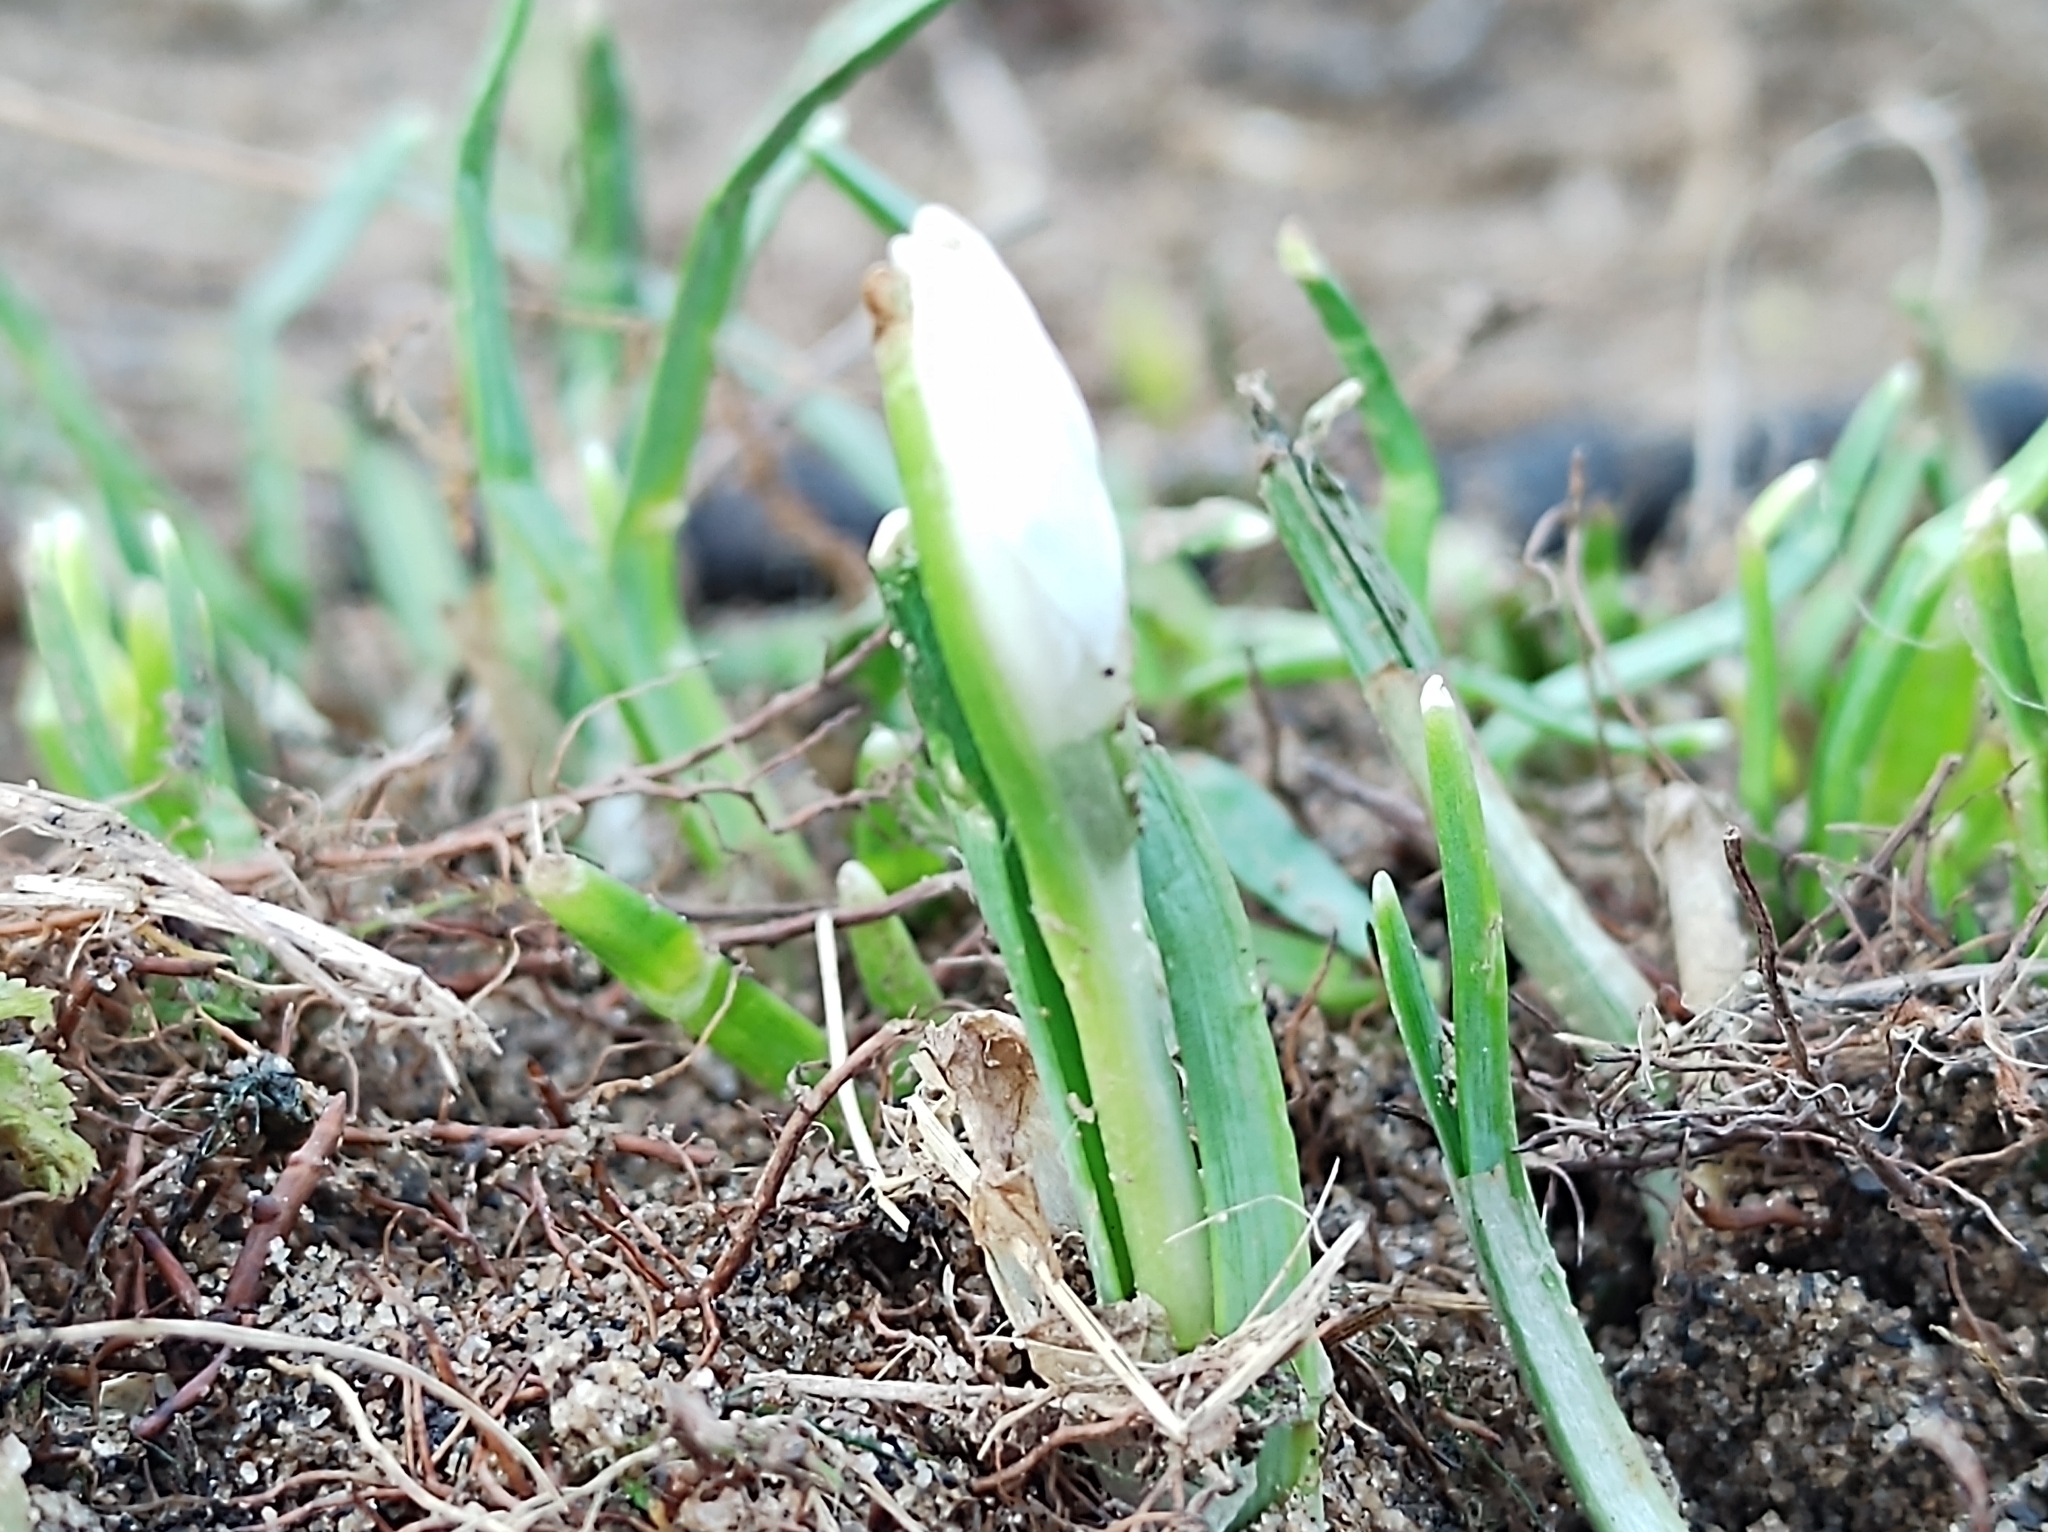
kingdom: Plantae
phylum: Tracheophyta
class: Liliopsida
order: Asparagales
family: Amaryllidaceae
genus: Galanthus
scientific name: Galanthus nivalis
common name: Snowdrop
